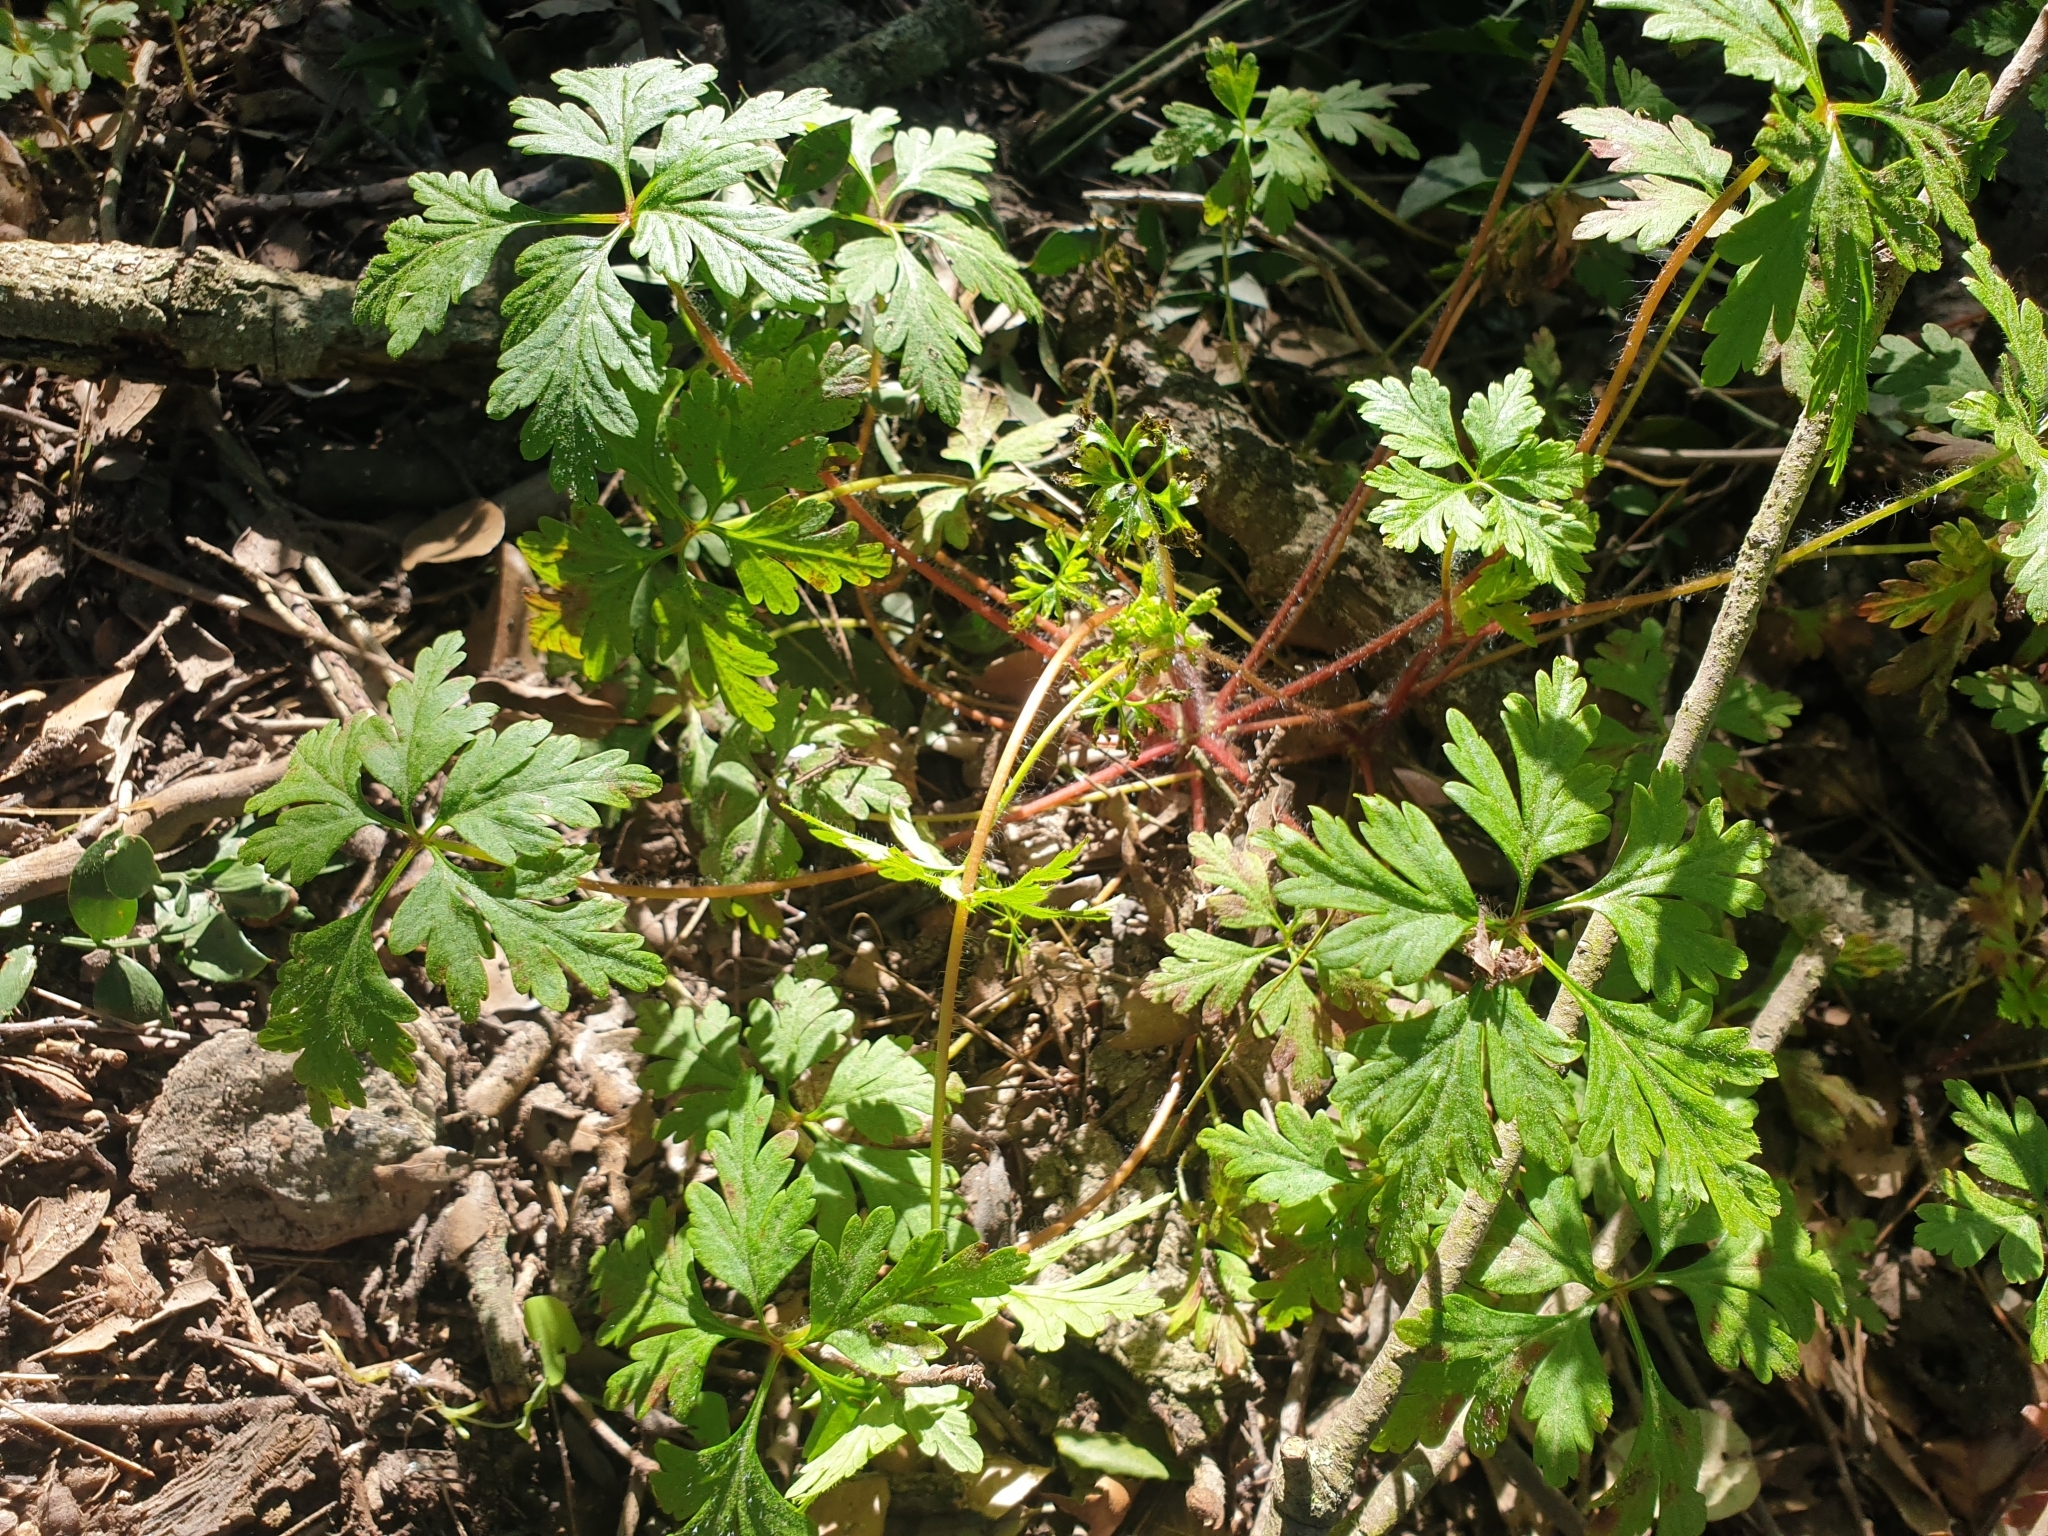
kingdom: Plantae
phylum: Tracheophyta
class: Magnoliopsida
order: Geraniales
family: Geraniaceae
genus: Geranium
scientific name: Geranium purpureum
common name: Little-robin
